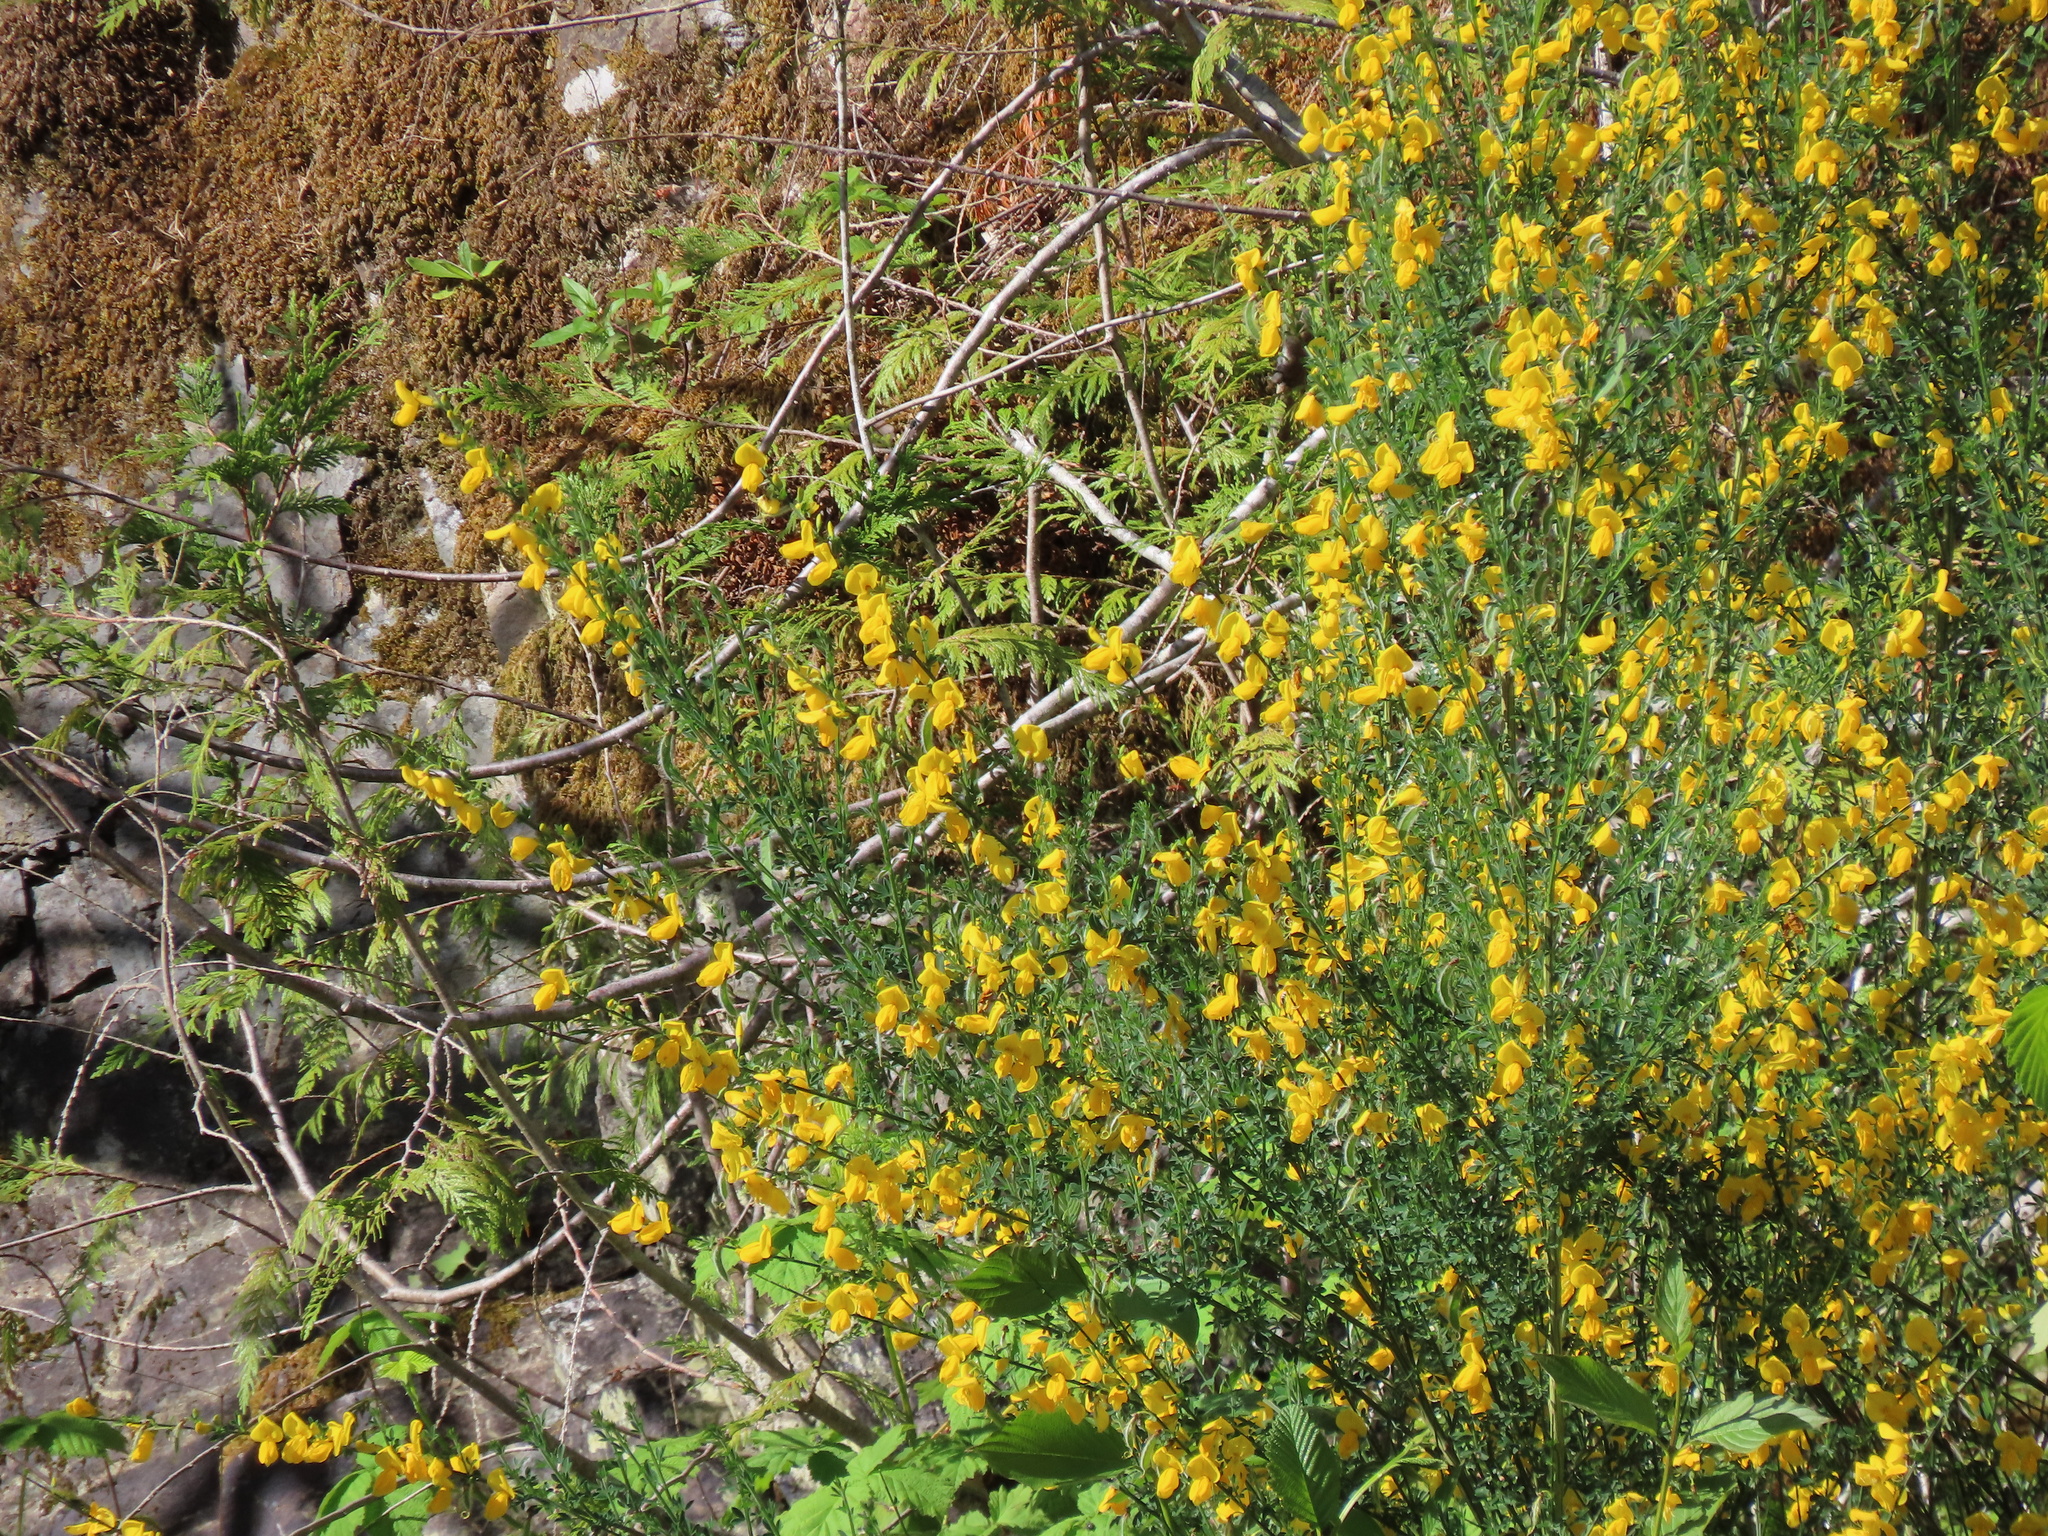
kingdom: Plantae
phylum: Tracheophyta
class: Magnoliopsida
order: Fabales
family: Fabaceae
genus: Cytisus
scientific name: Cytisus scoparius
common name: Scotch broom
